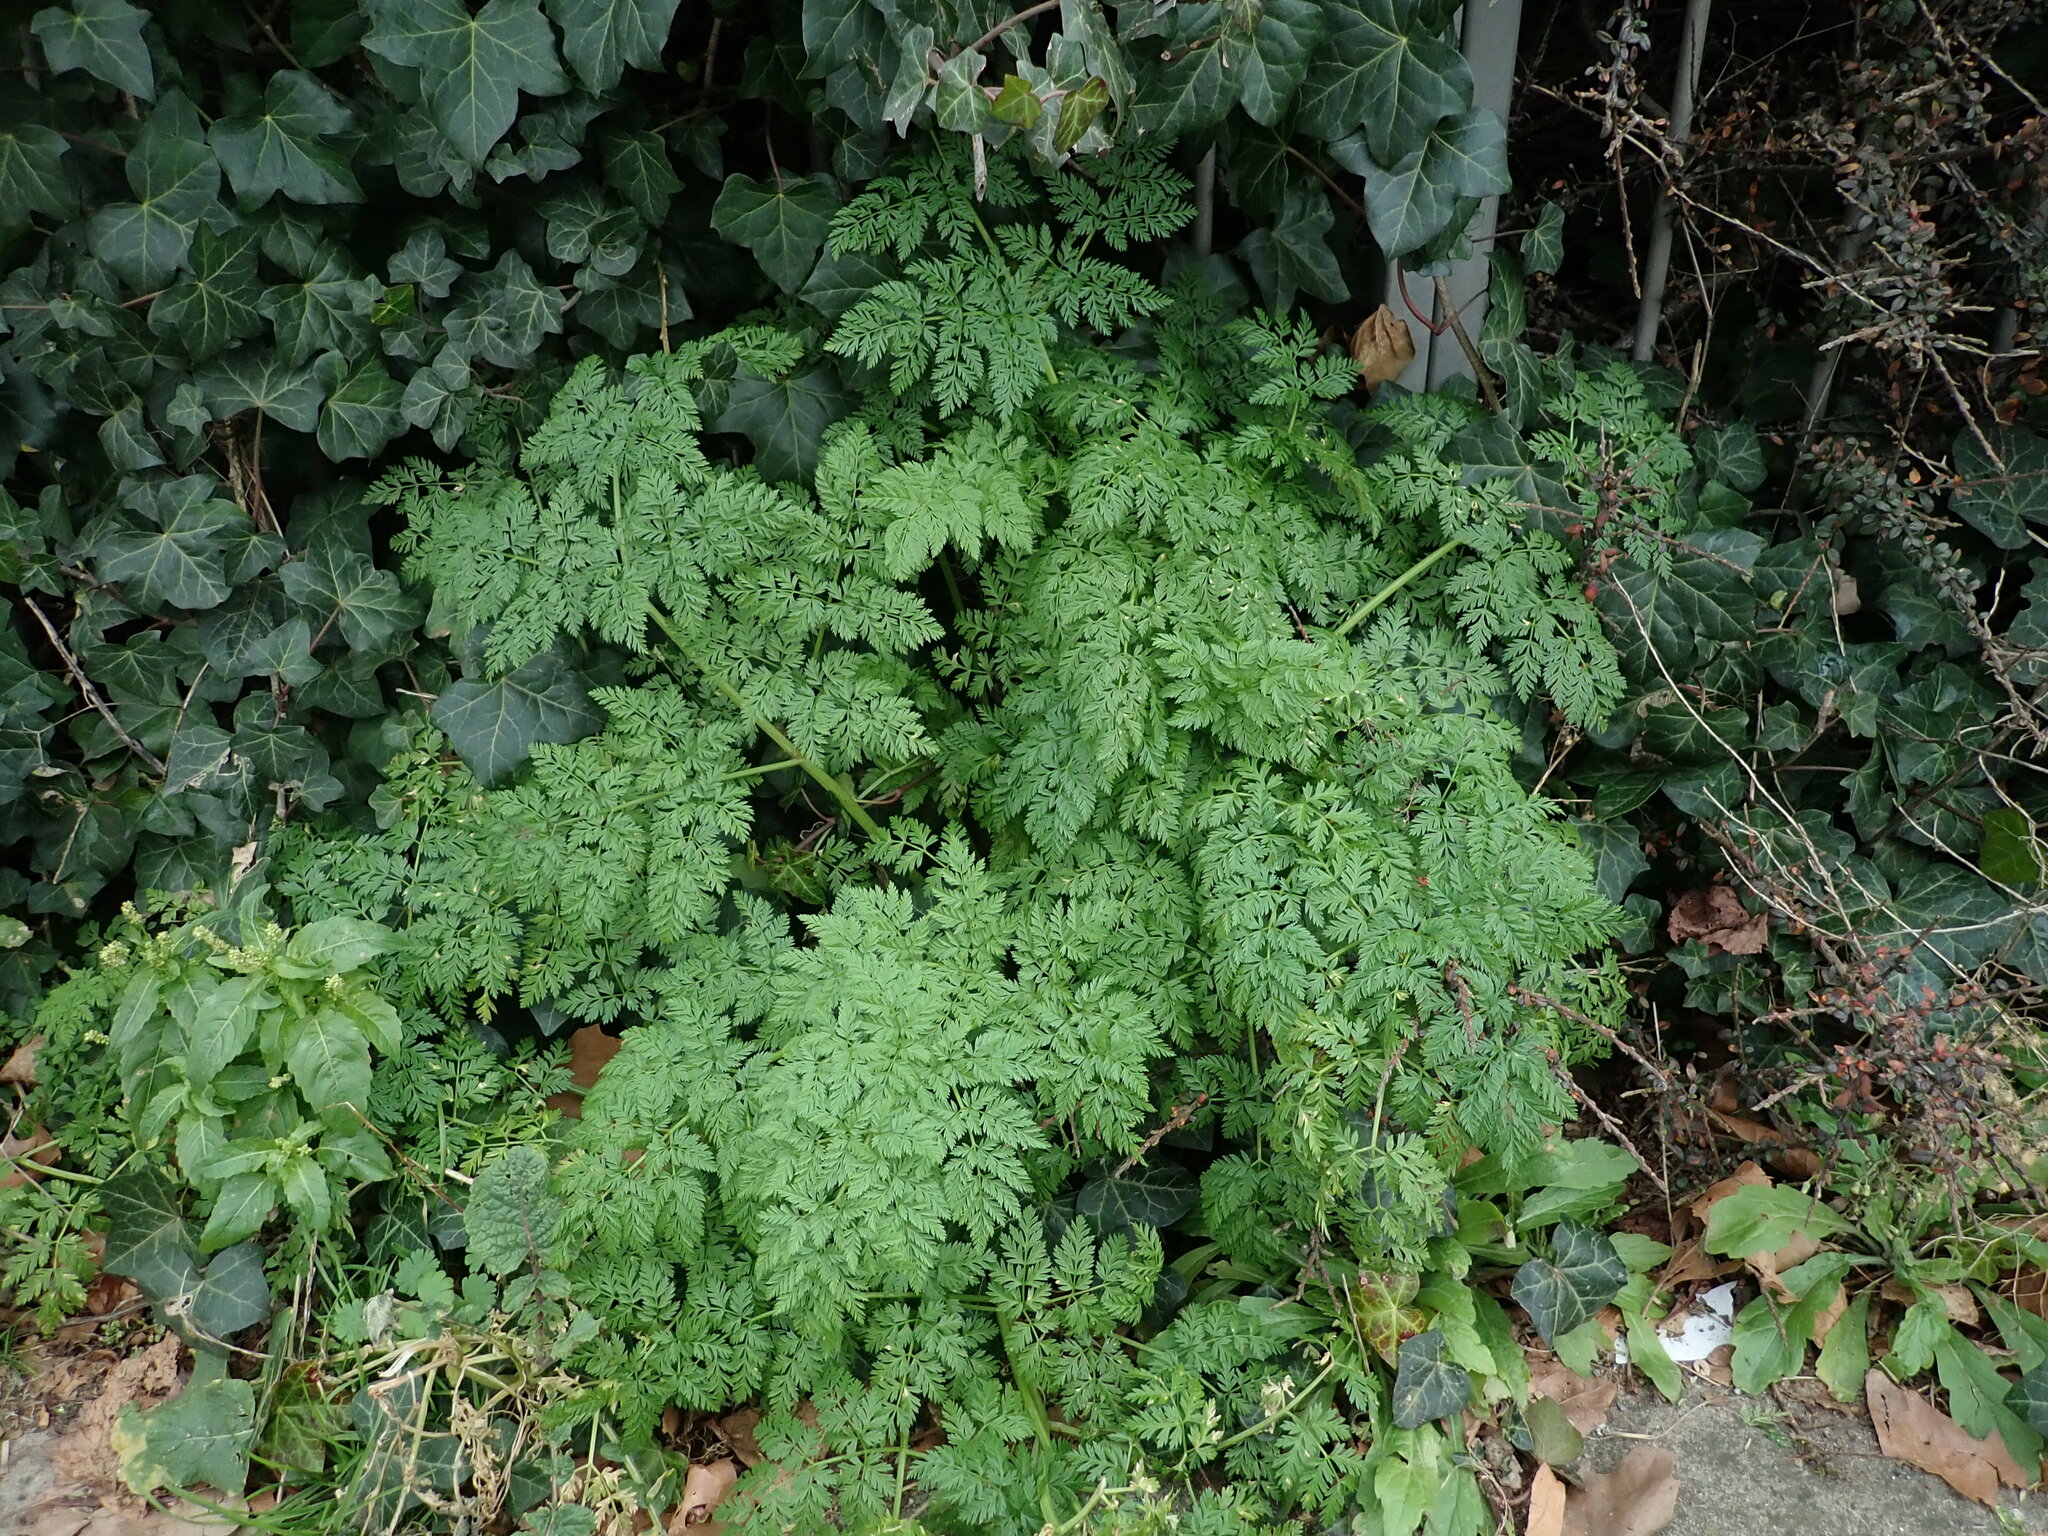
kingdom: Plantae
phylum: Tracheophyta
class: Magnoliopsida
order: Apiales
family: Apiaceae
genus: Conium
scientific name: Conium maculatum
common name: Hemlock
